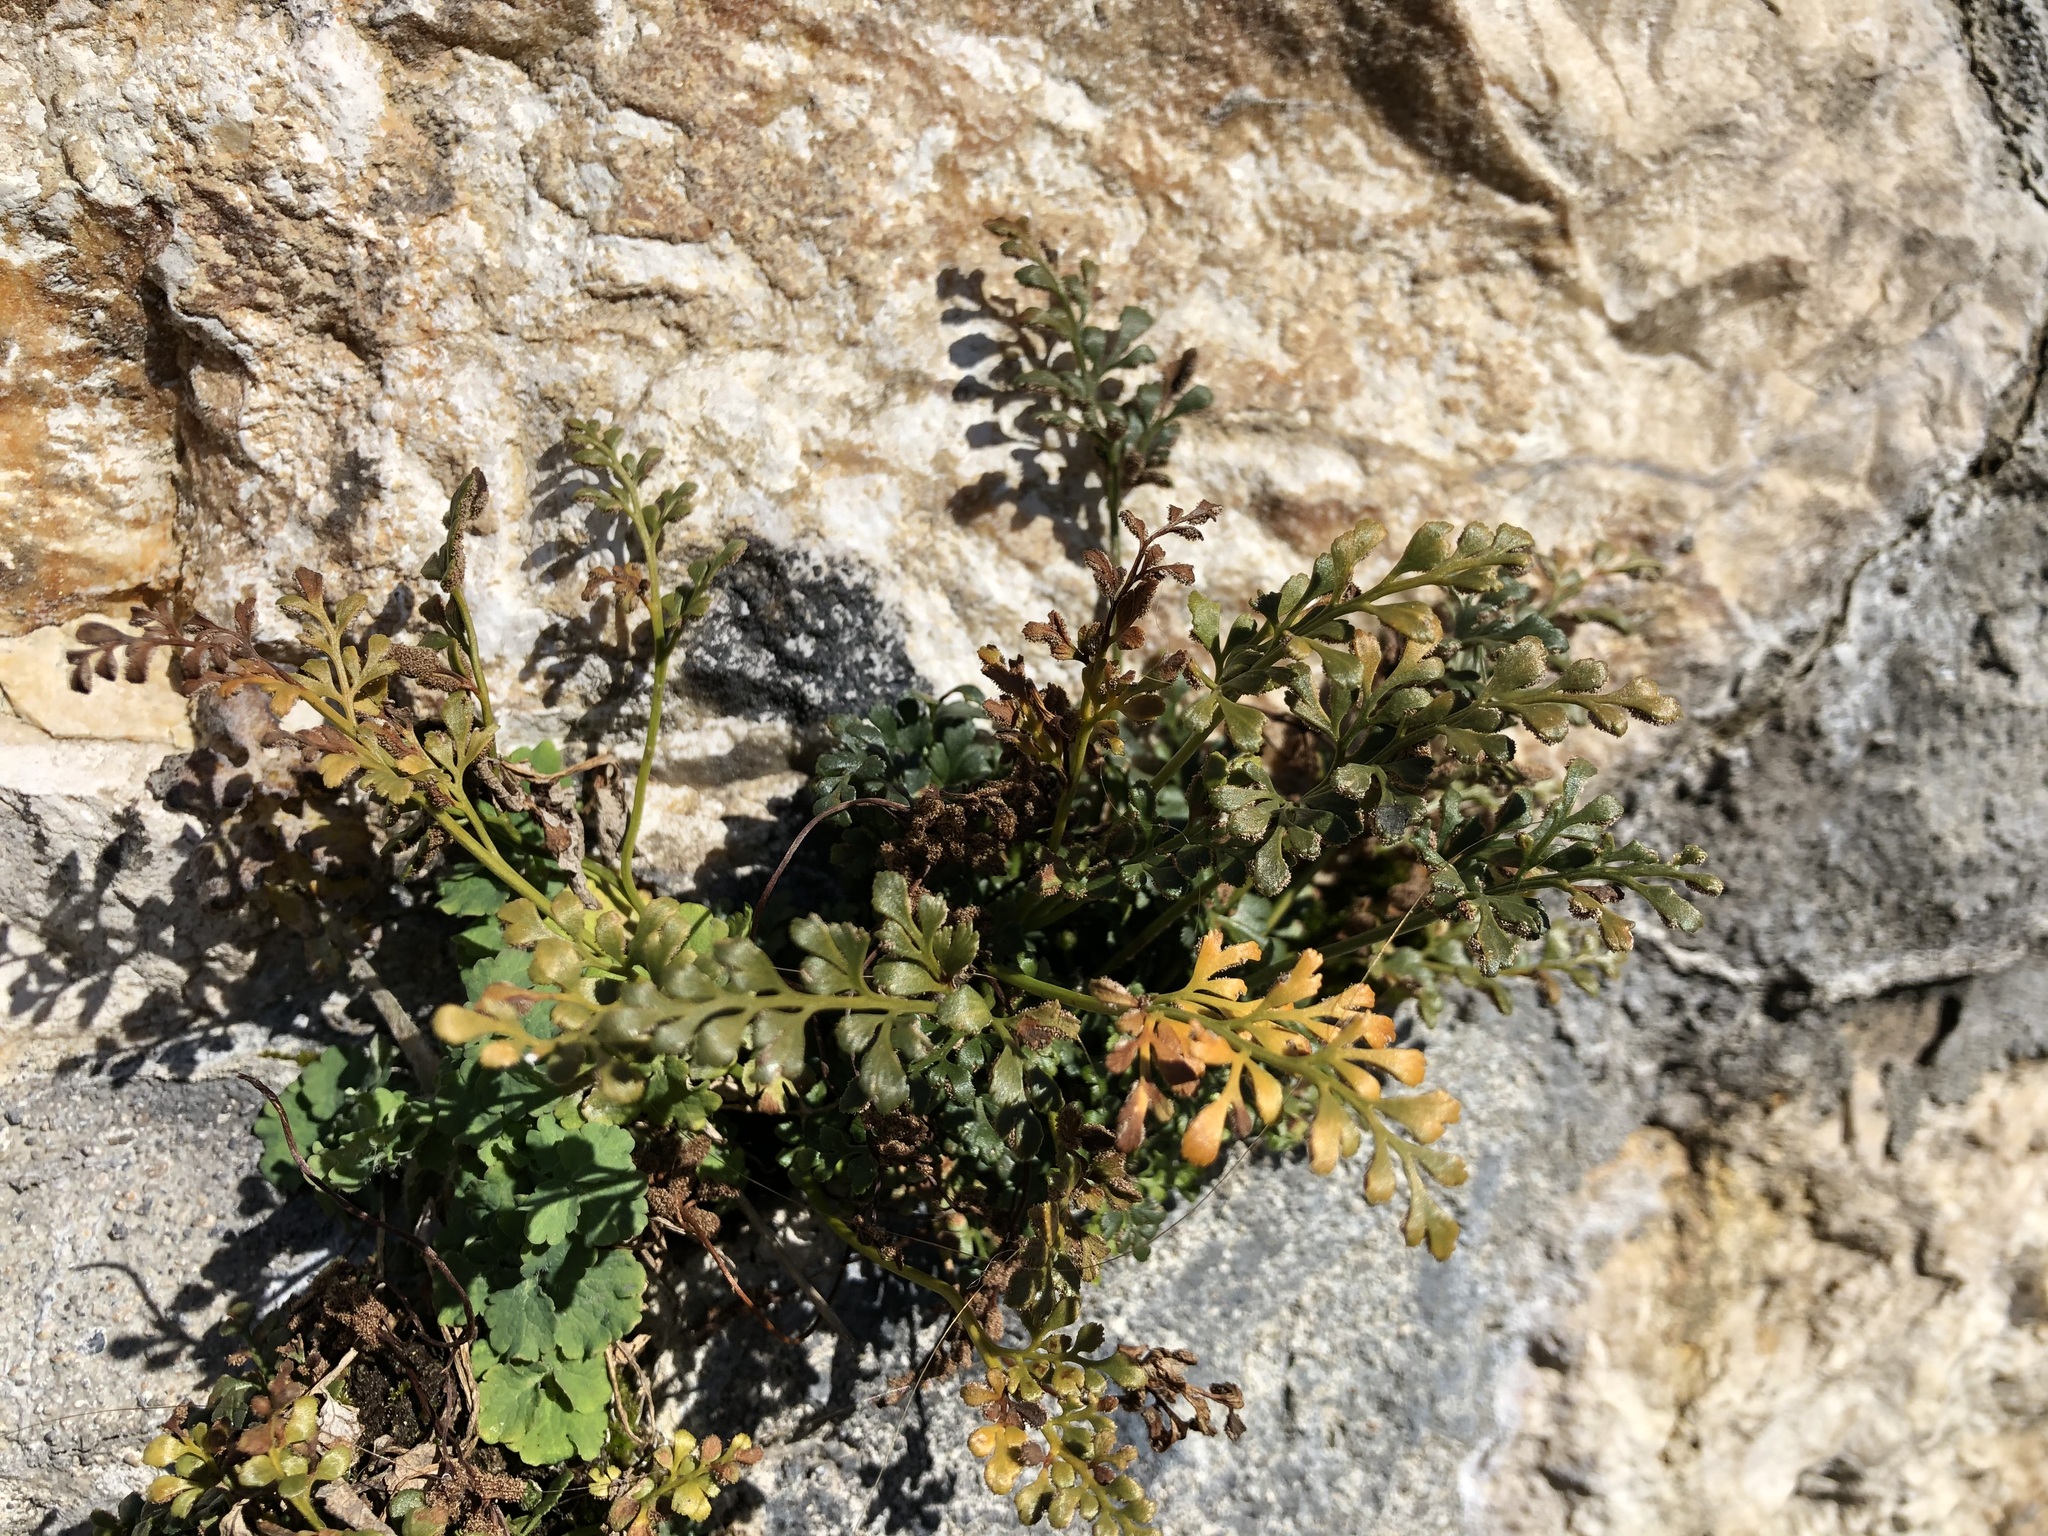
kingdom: Plantae
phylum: Tracheophyta
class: Polypodiopsida
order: Polypodiales
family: Aspleniaceae
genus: Asplenium
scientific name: Asplenium ruta-muraria
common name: Wall-rue
